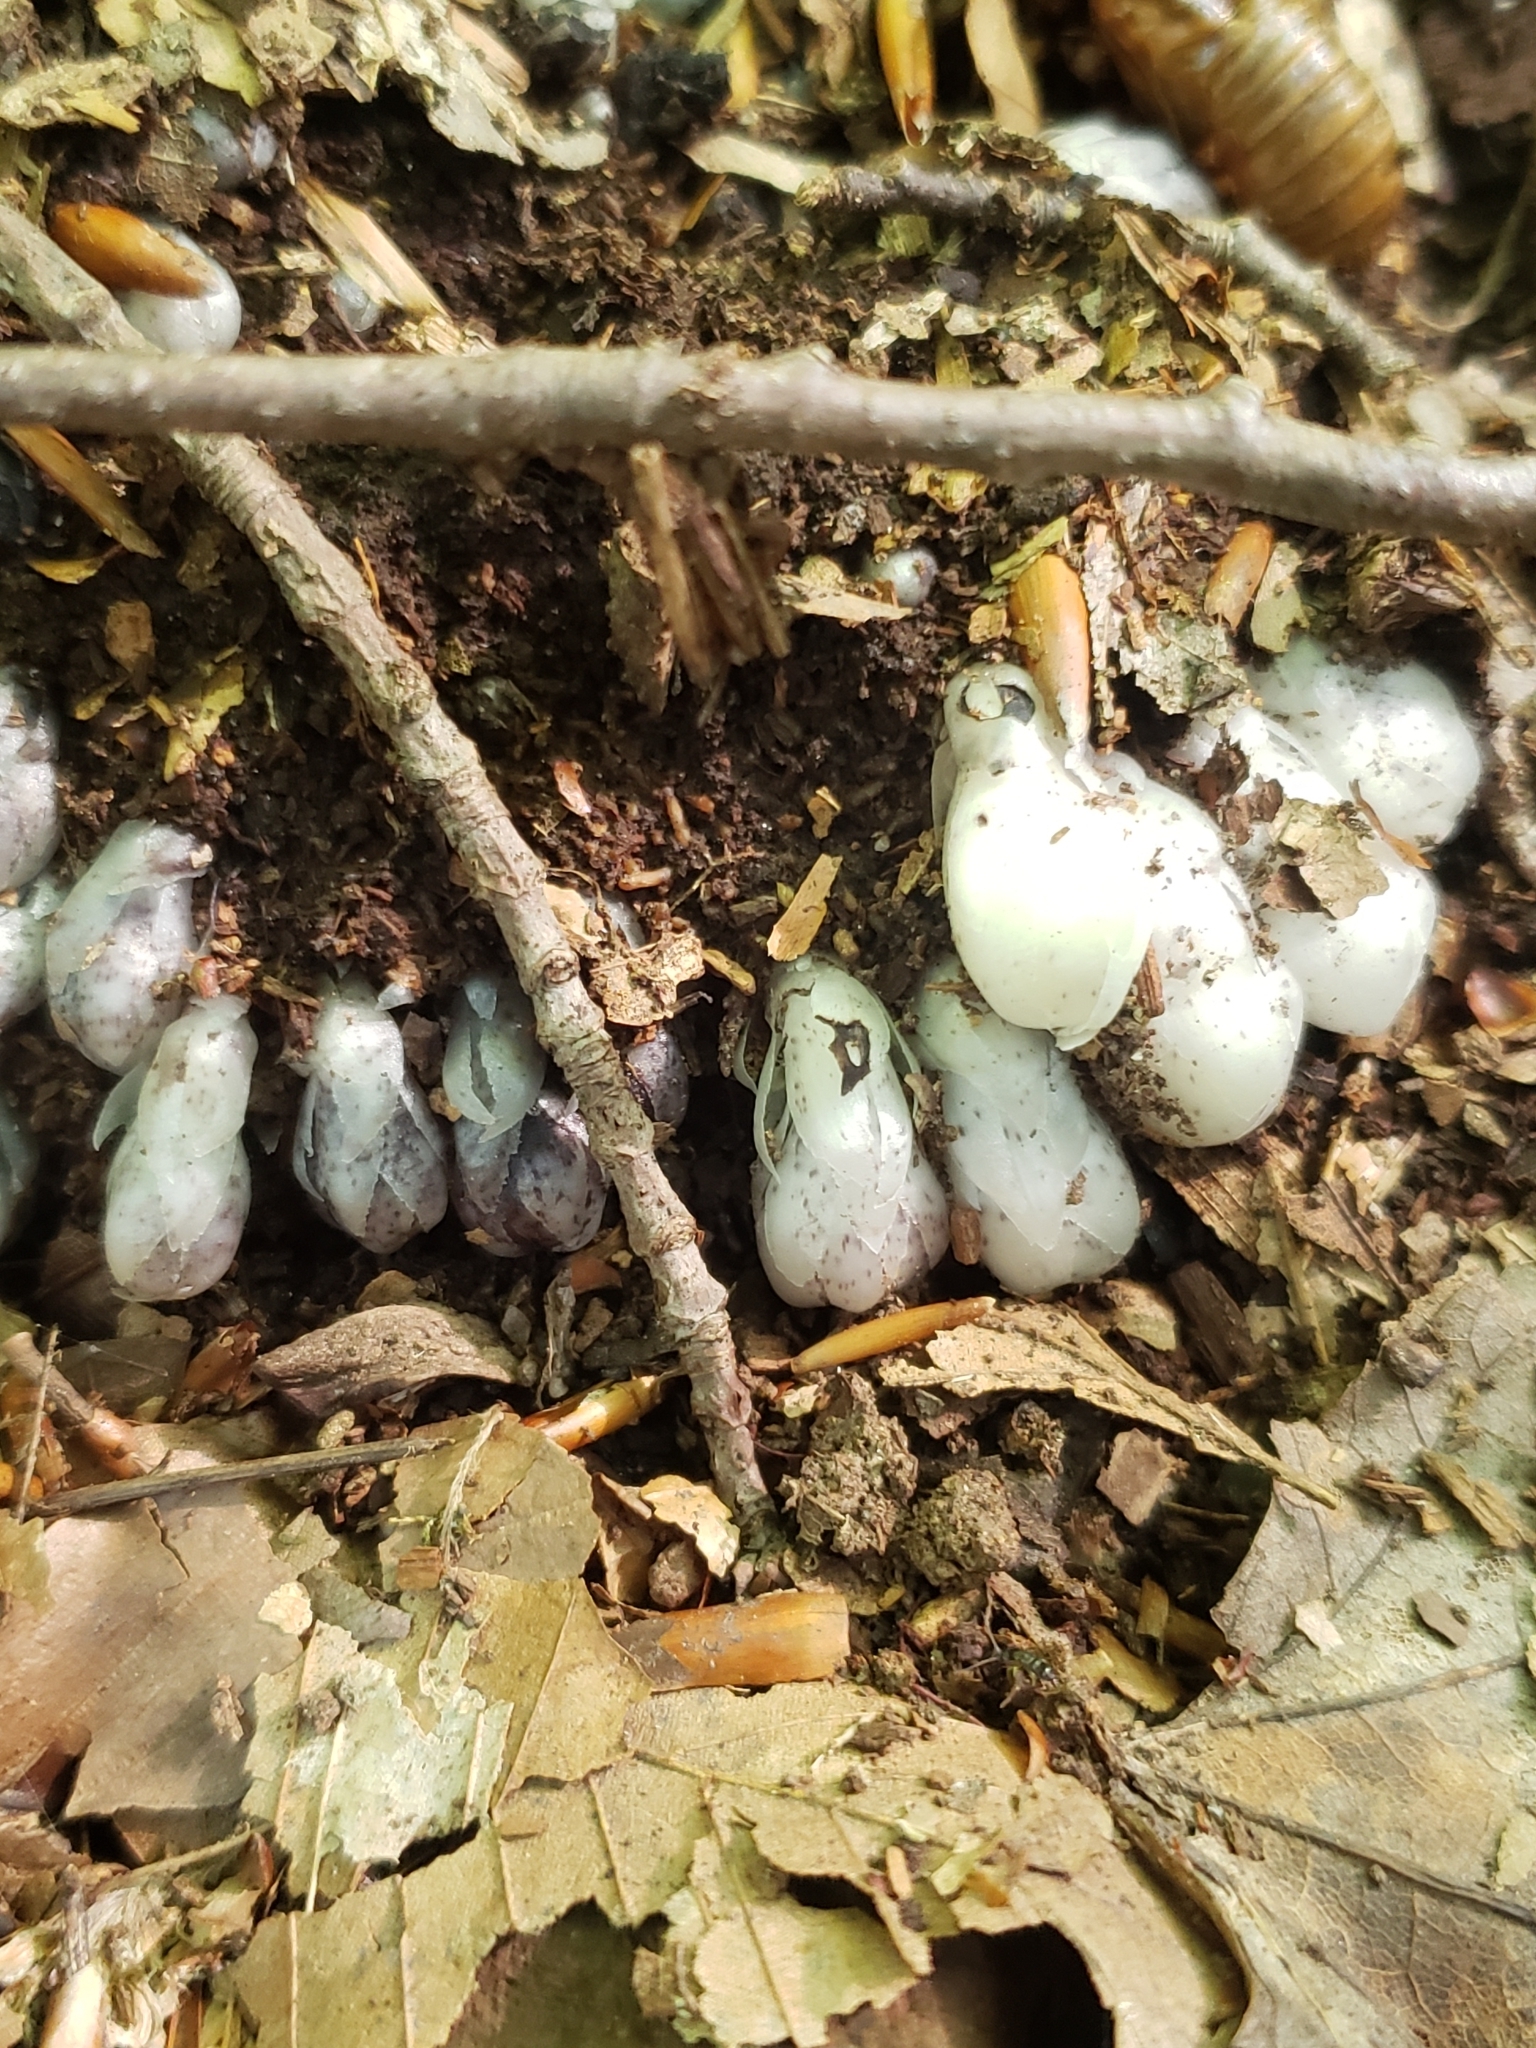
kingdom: Plantae
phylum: Tracheophyta
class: Magnoliopsida
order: Ericales
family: Ericaceae
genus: Monotropa
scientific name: Monotropa uniflora
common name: Convulsion root
